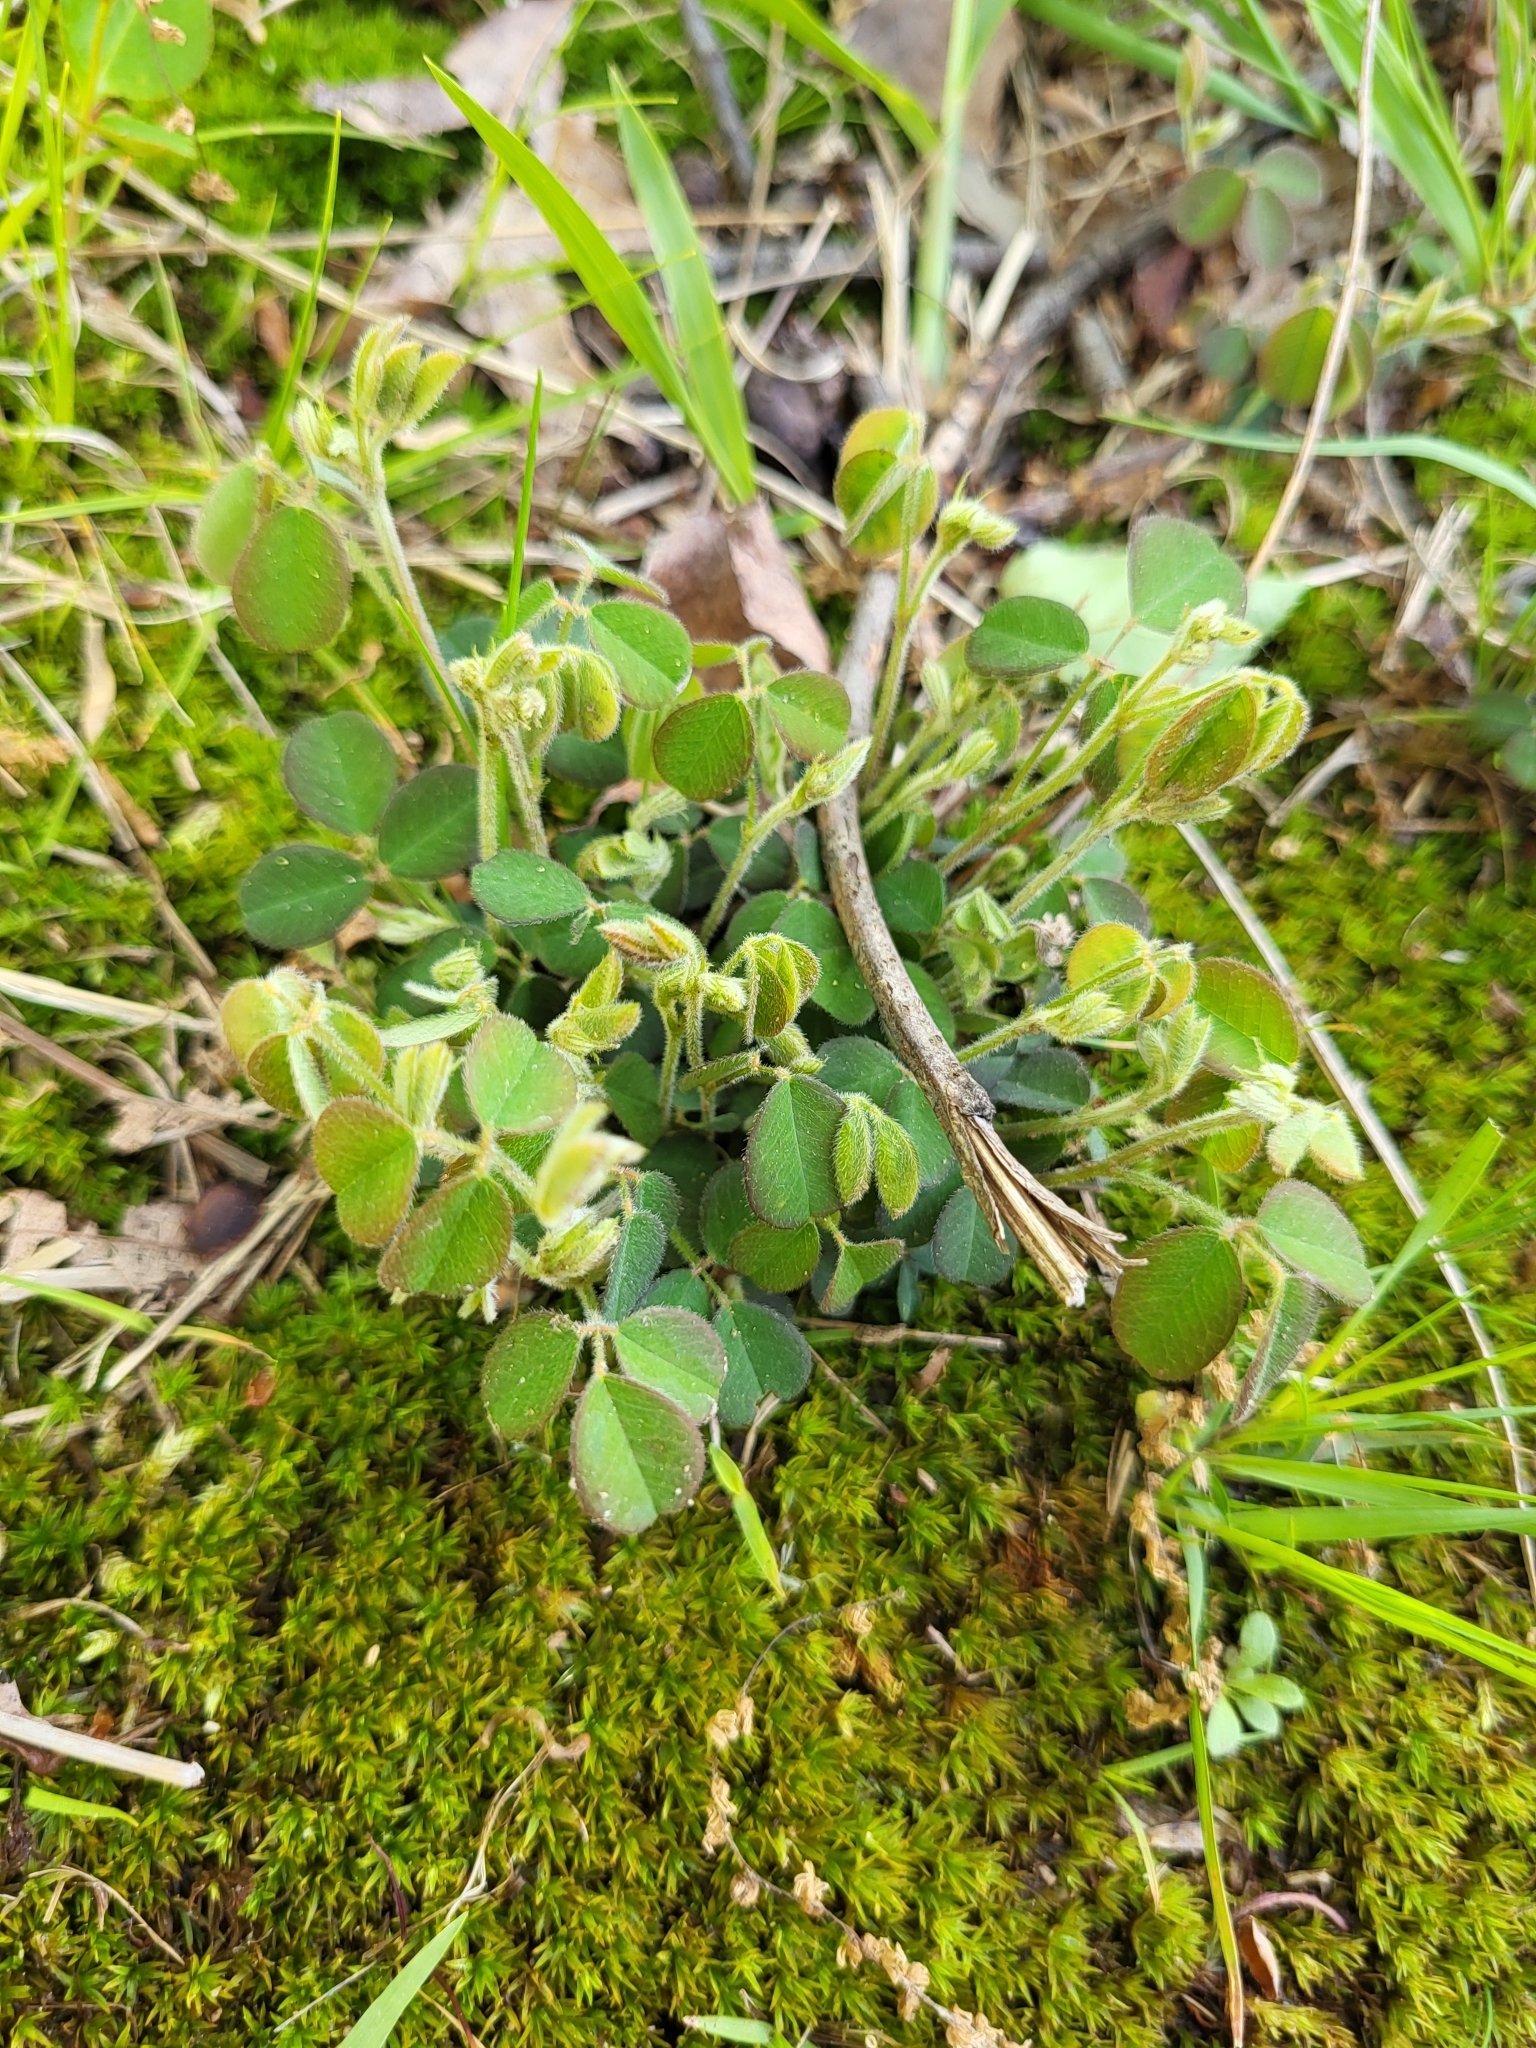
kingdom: Plantae
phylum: Tracheophyta
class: Magnoliopsida
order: Fabales
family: Fabaceae
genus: Lespedeza
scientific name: Lespedeza procumbens
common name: Downy trailing bush-clover
